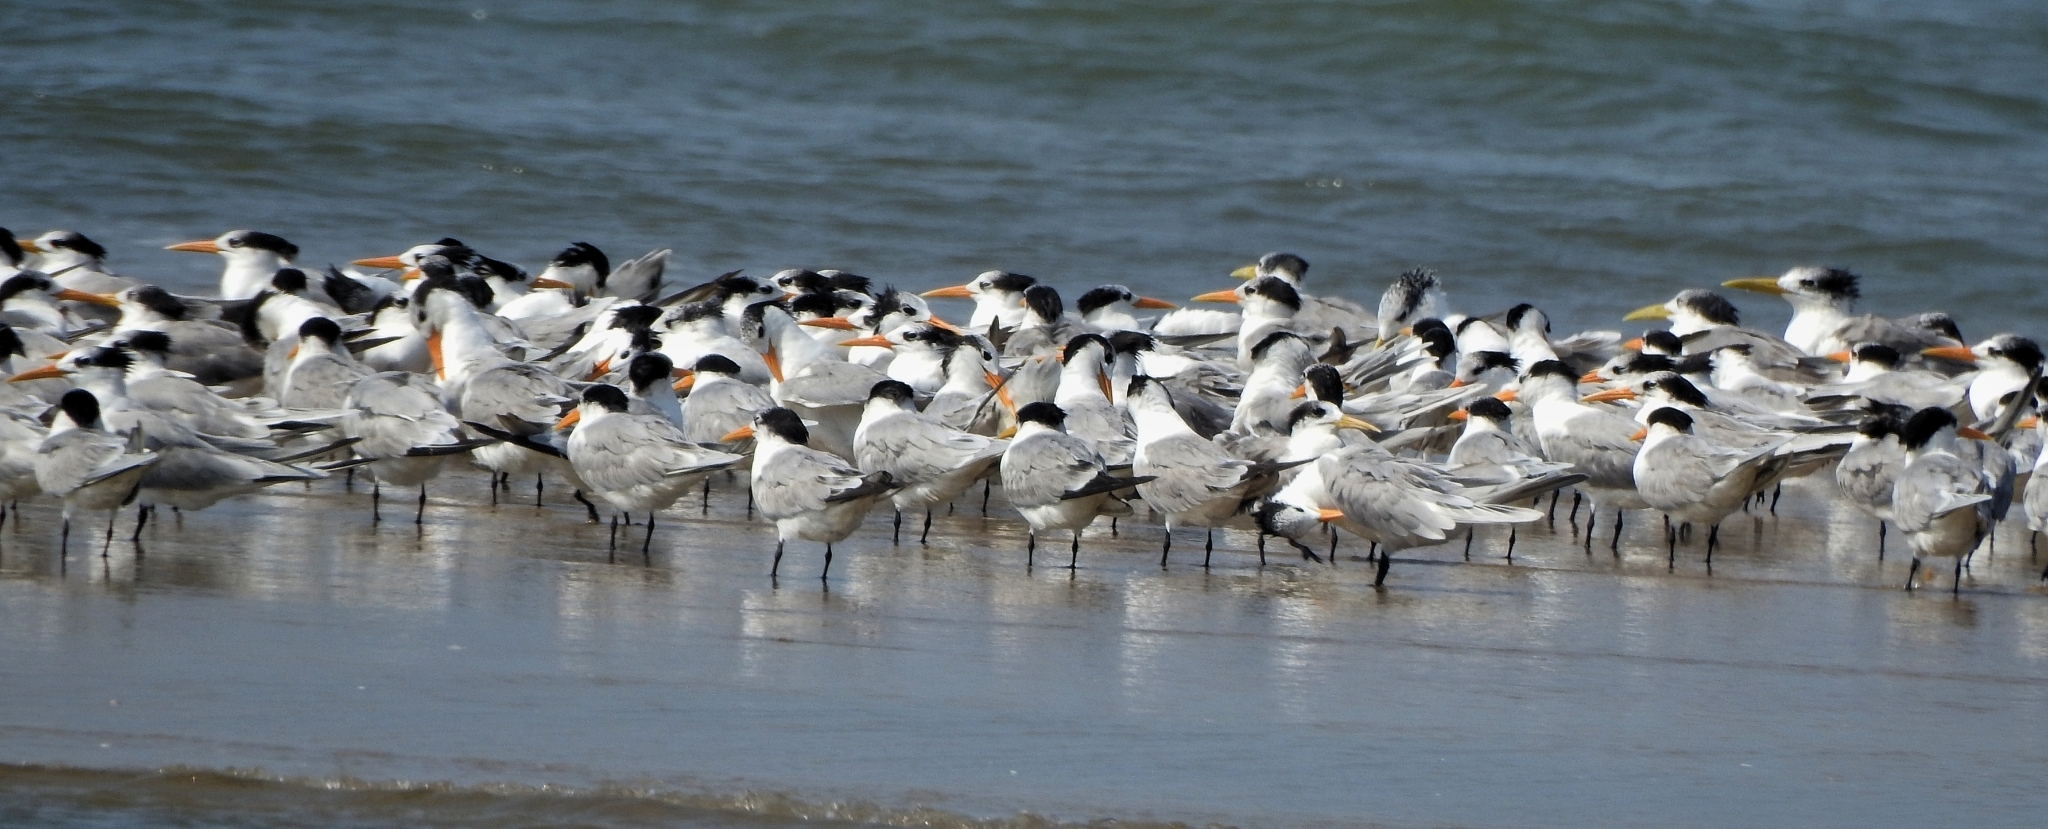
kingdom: Animalia
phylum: Chordata
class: Aves
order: Charadriiformes
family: Laridae
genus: Thalasseus
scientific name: Thalasseus bengalensis
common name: Lesser crested tern
